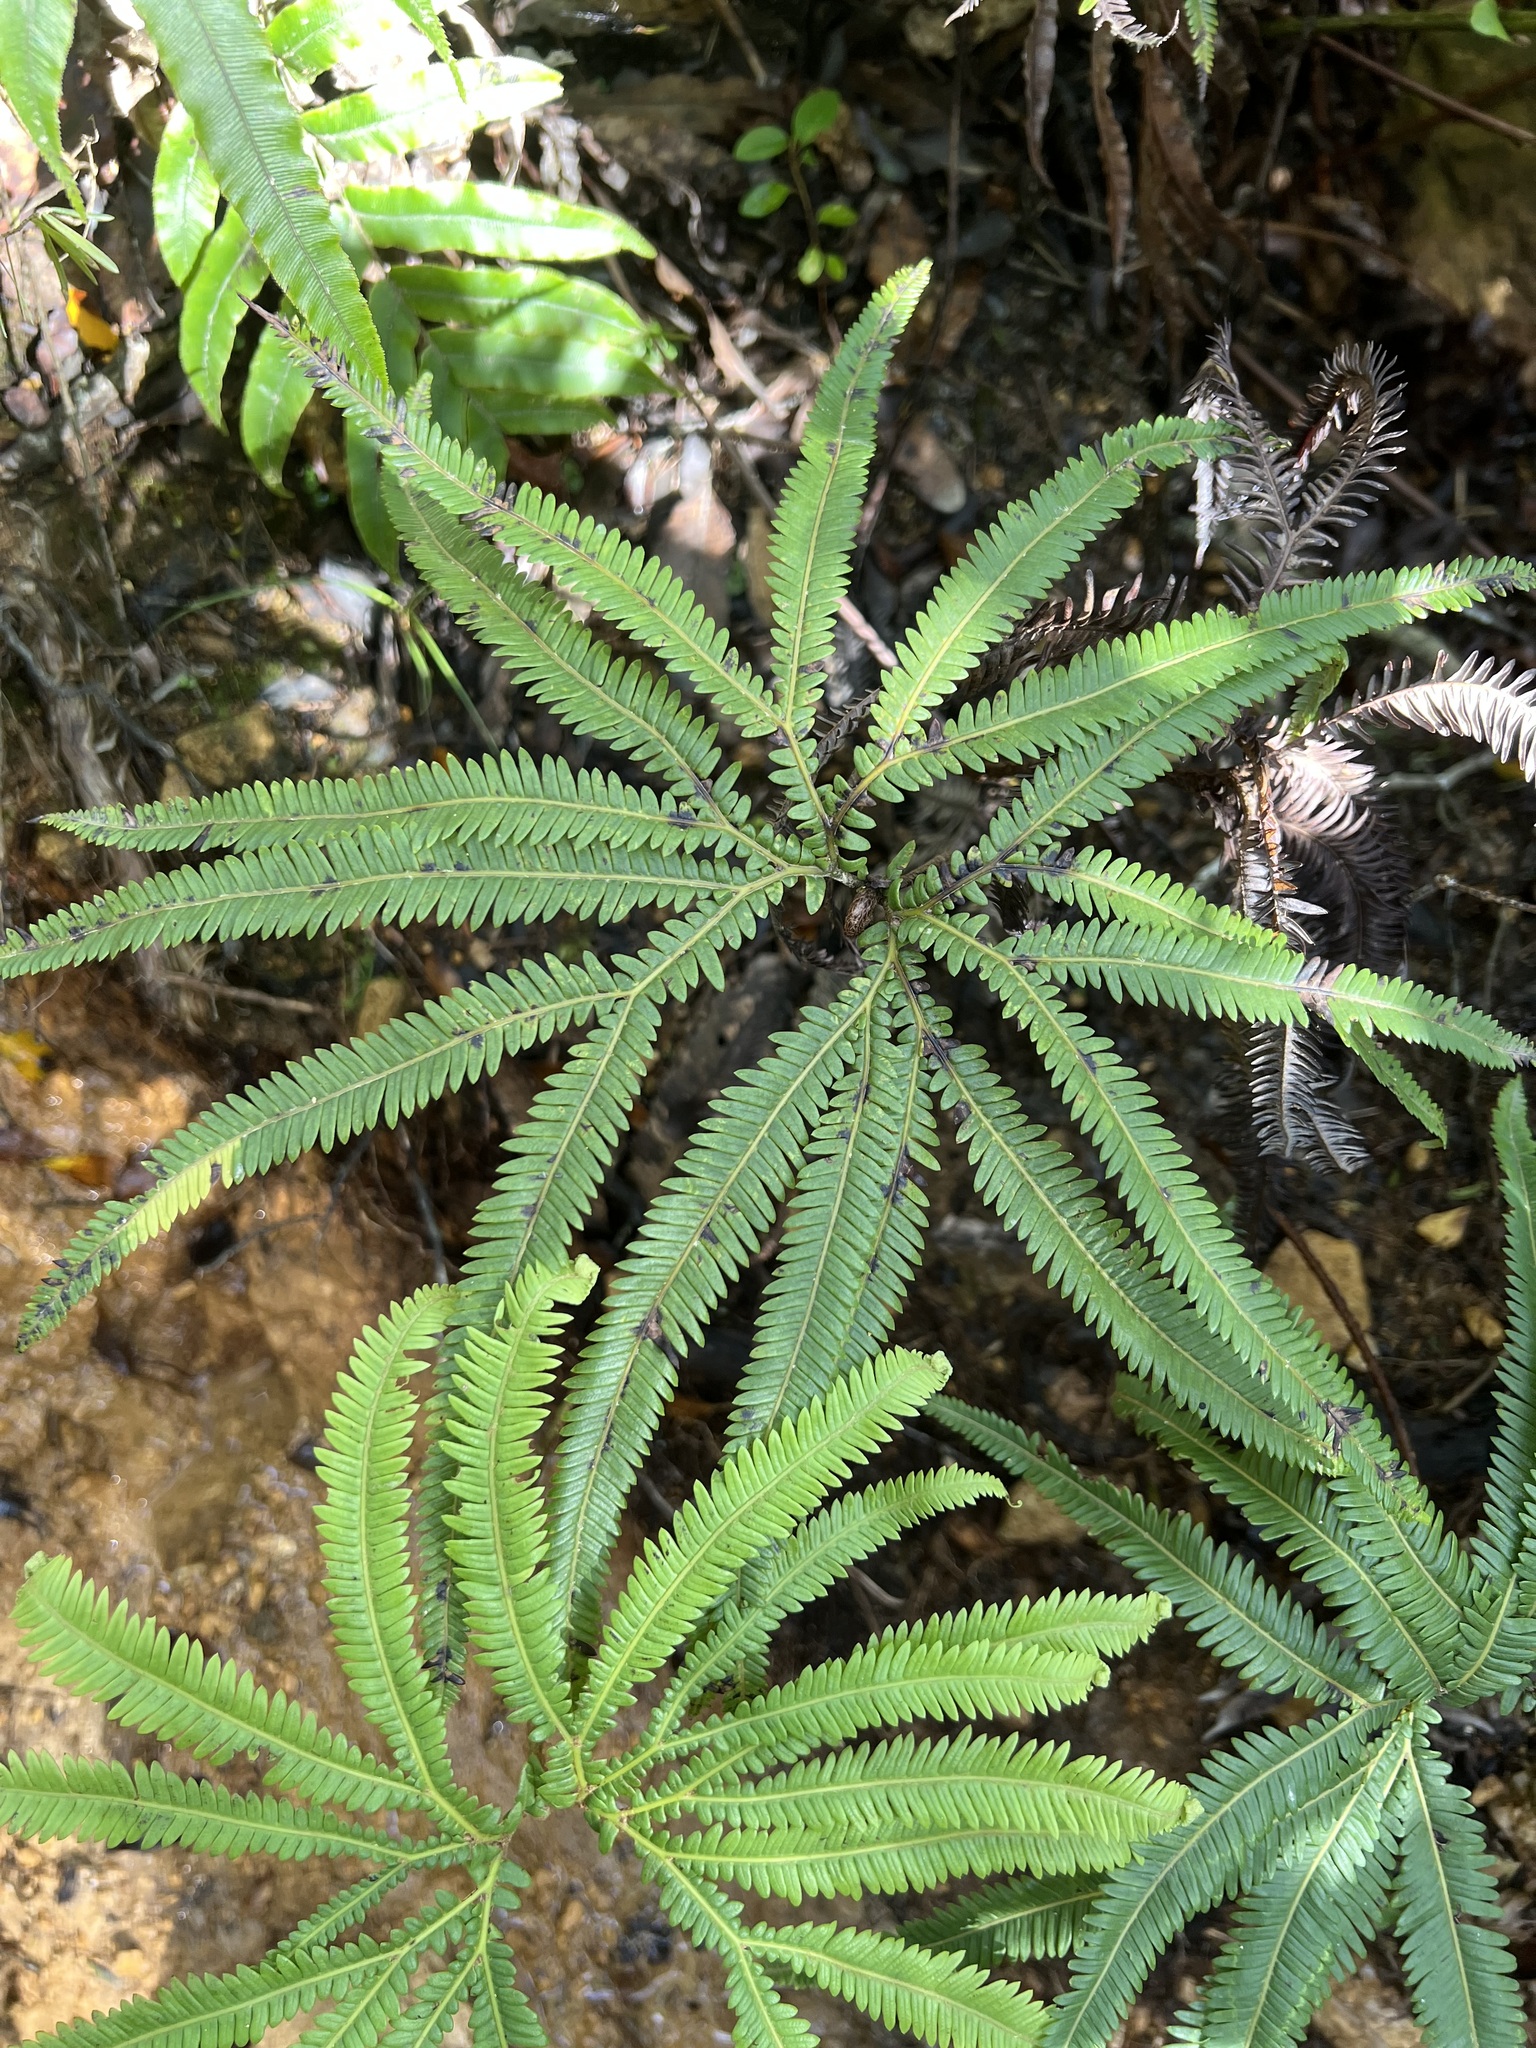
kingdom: Plantae
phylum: Tracheophyta
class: Polypodiopsida
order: Gleicheniales
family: Gleicheniaceae
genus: Sticherus
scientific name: Sticherus cunninghamii
